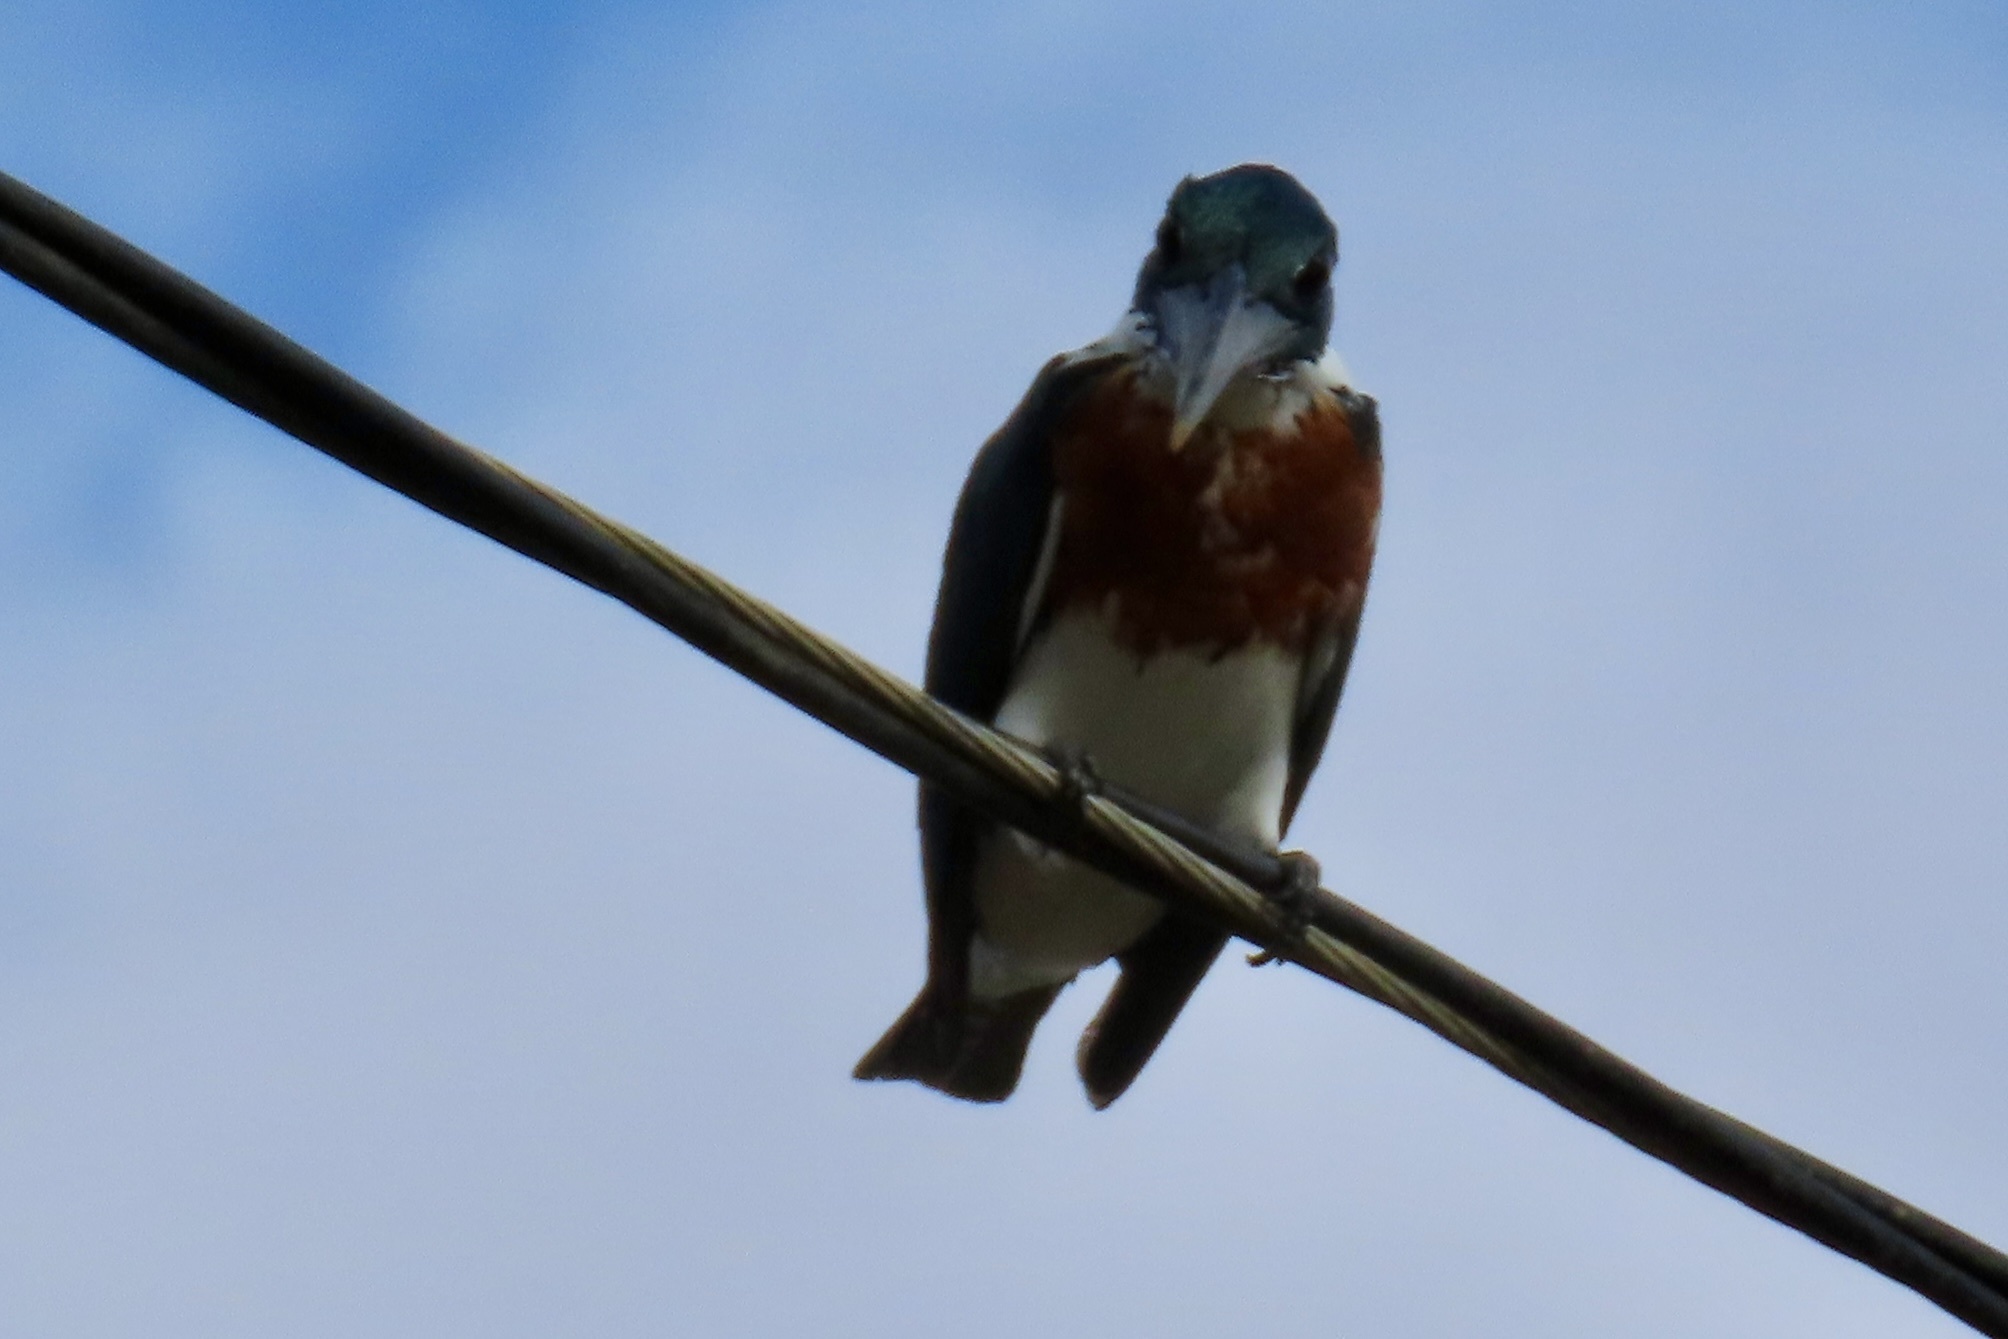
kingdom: Animalia
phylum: Chordata
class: Aves
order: Coraciiformes
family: Alcedinidae
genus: Chloroceryle
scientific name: Chloroceryle amazona
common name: Amazon kingfisher
